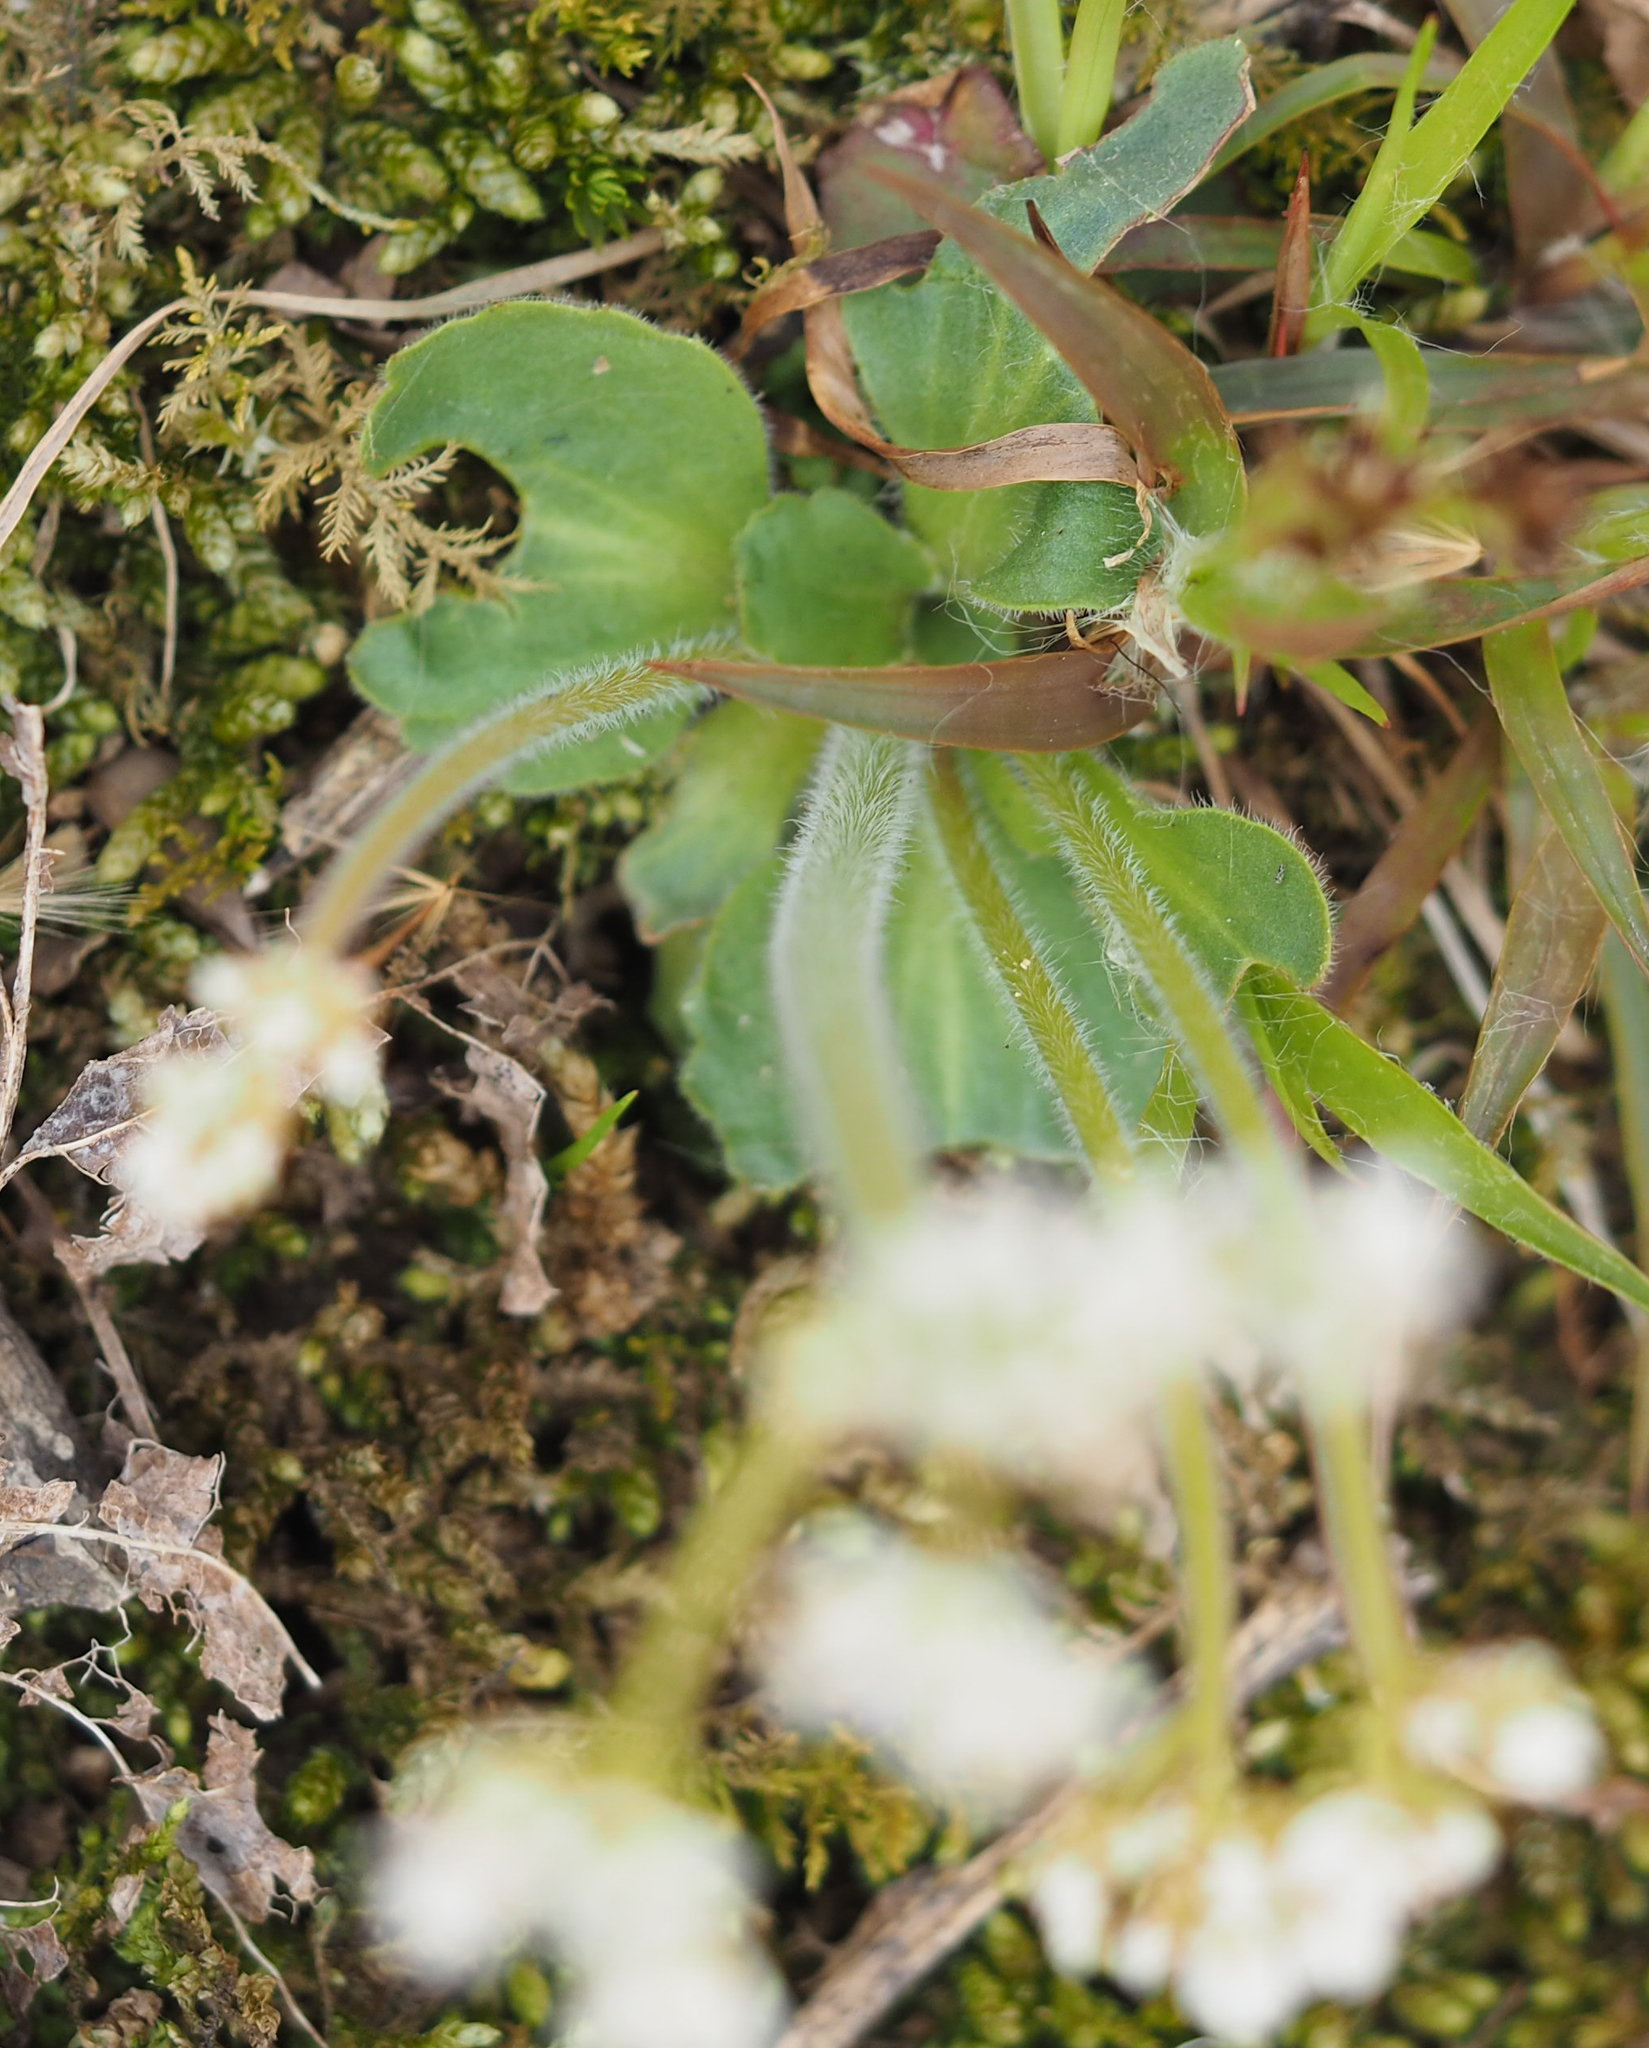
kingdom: Plantae
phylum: Tracheophyta
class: Magnoliopsida
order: Saxifragales
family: Saxifragaceae
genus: Micranthes
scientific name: Micranthes virginiensis
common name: Early saxifrage
